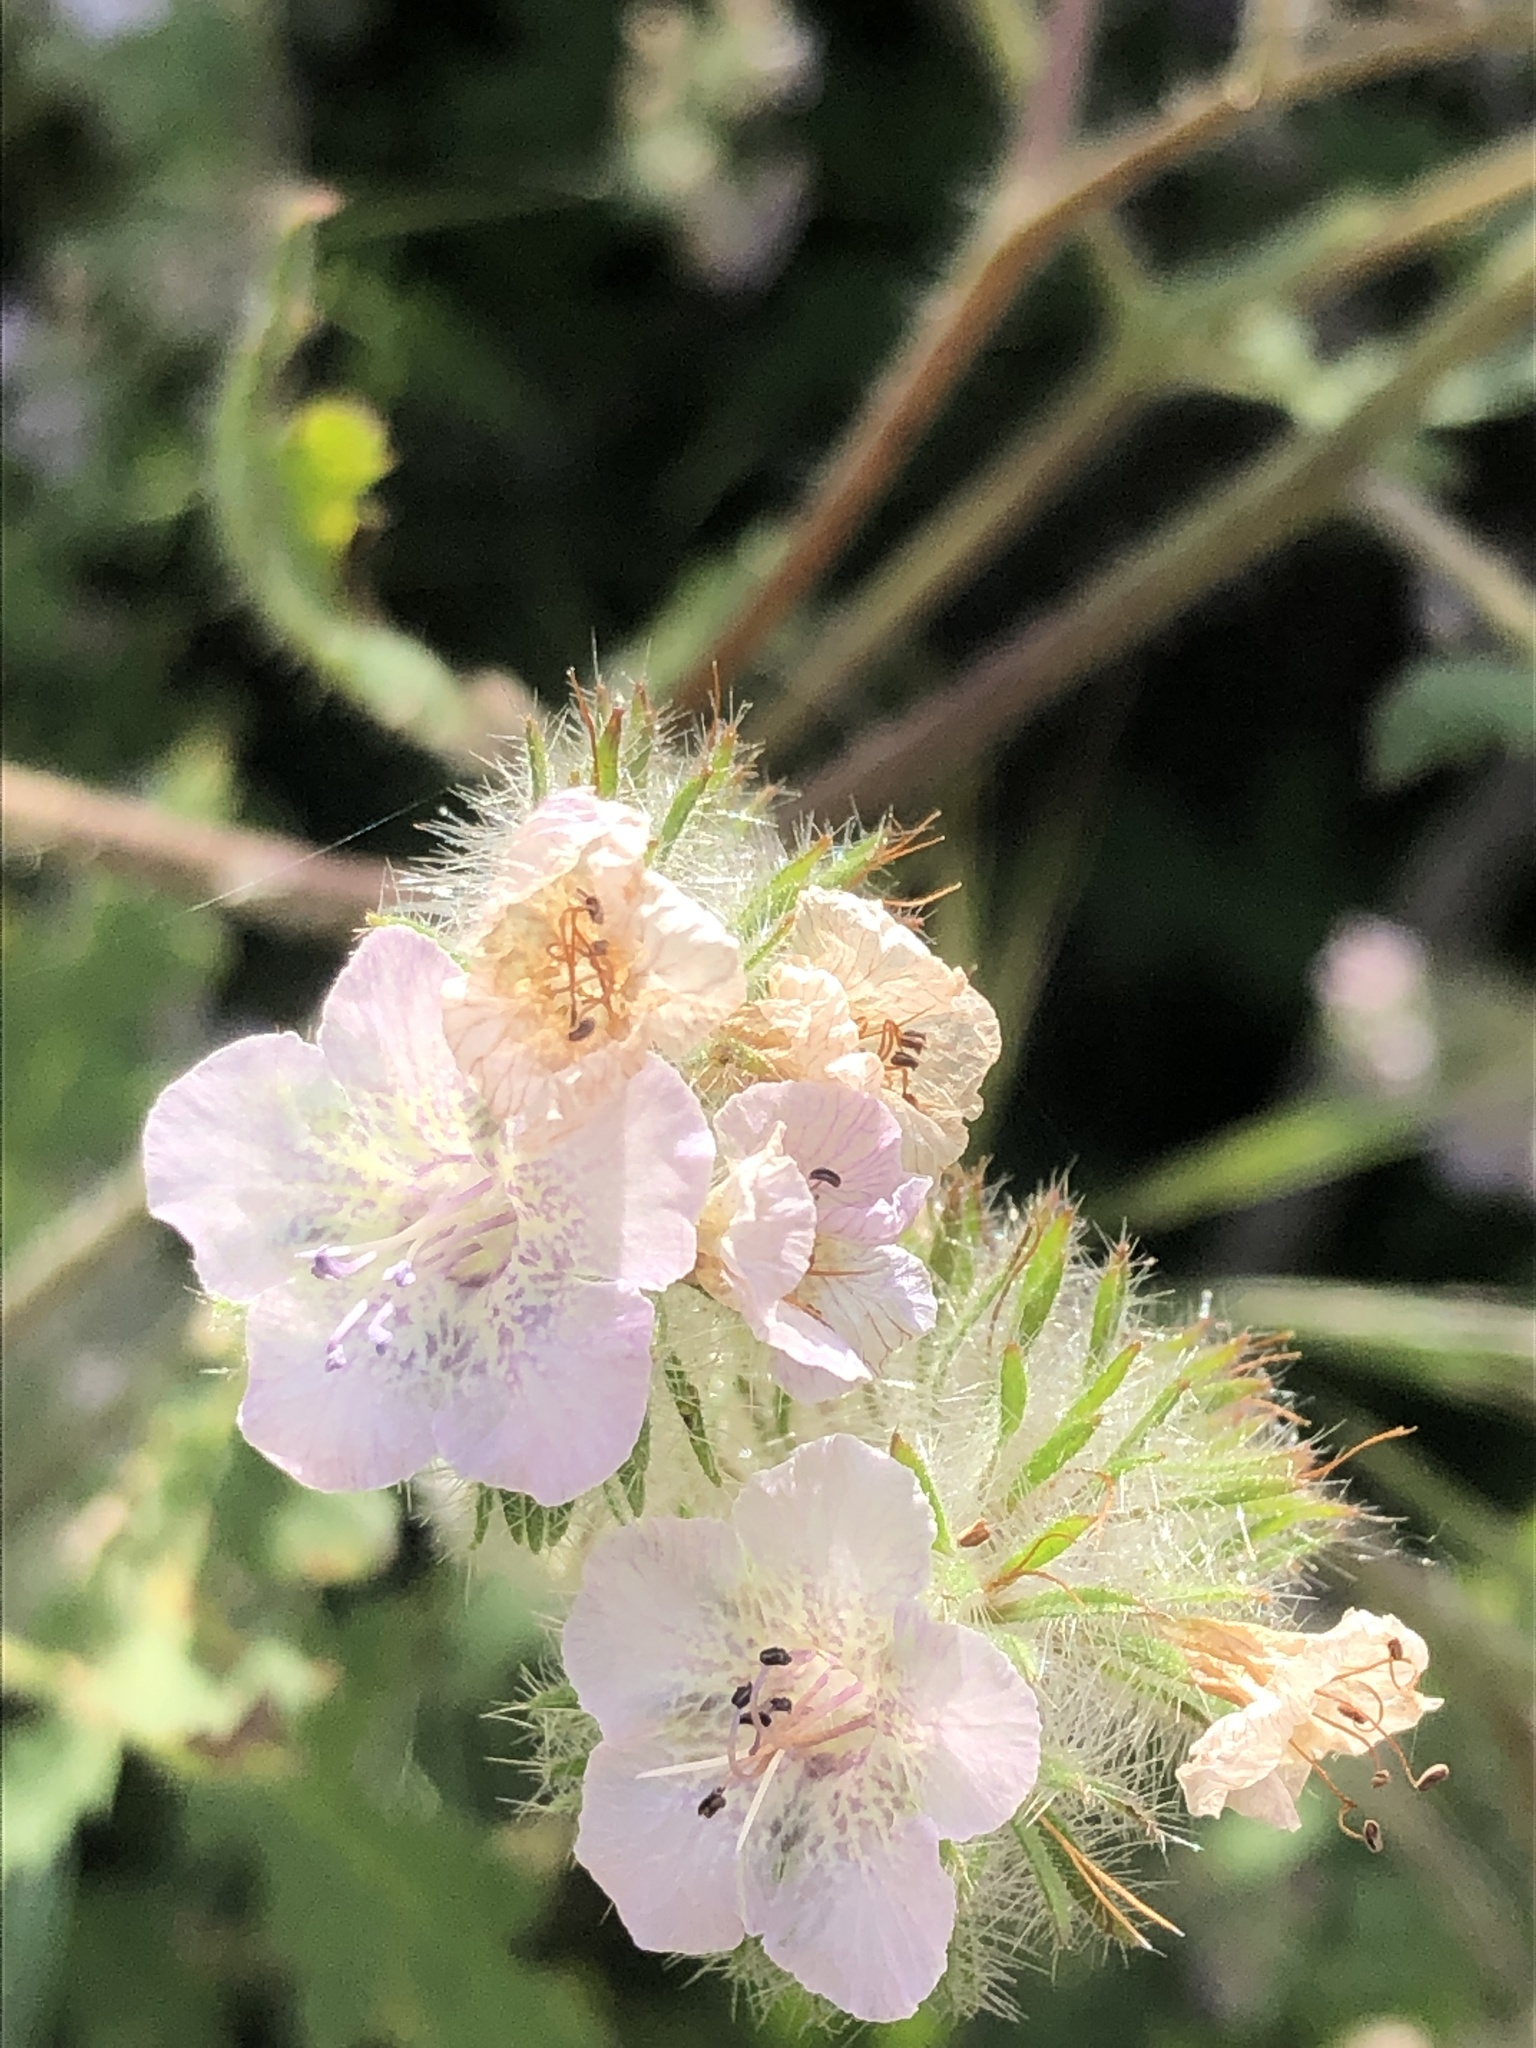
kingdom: Plantae
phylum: Tracheophyta
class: Magnoliopsida
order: Boraginales
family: Hydrophyllaceae
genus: Phacelia
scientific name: Phacelia cicutaria
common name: Caterpillar phacelia
